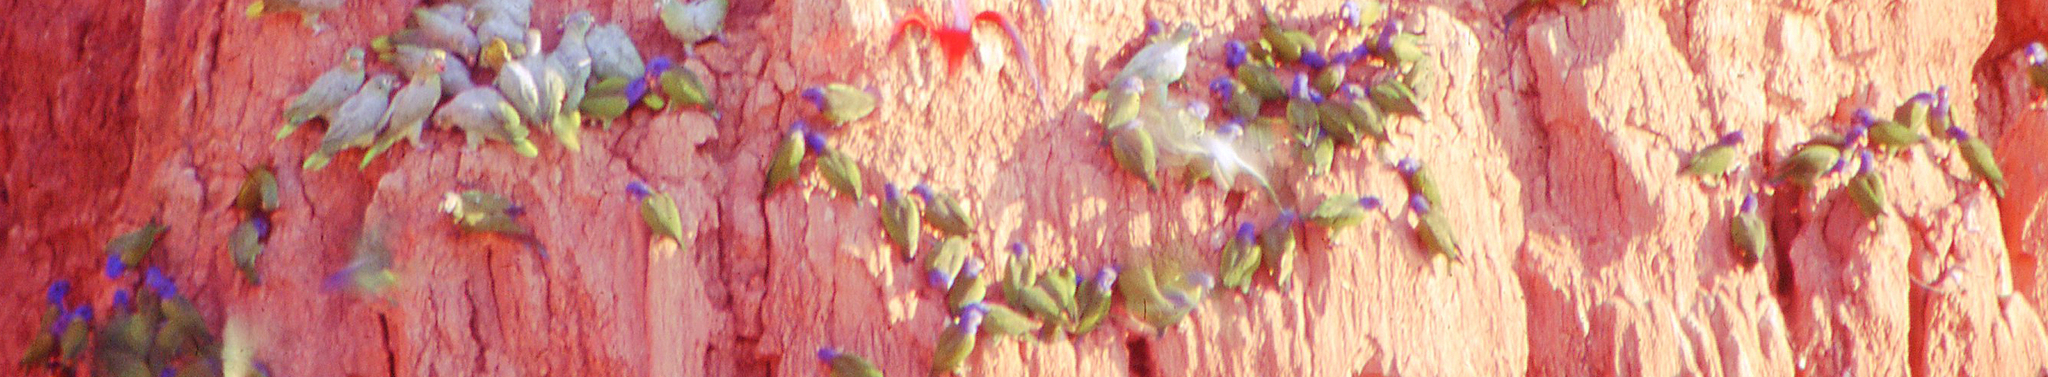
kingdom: Animalia
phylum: Chordata
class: Aves
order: Psittaciformes
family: Psittacidae
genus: Pionus
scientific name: Pionus menstruus
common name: Blue-headed parrot
